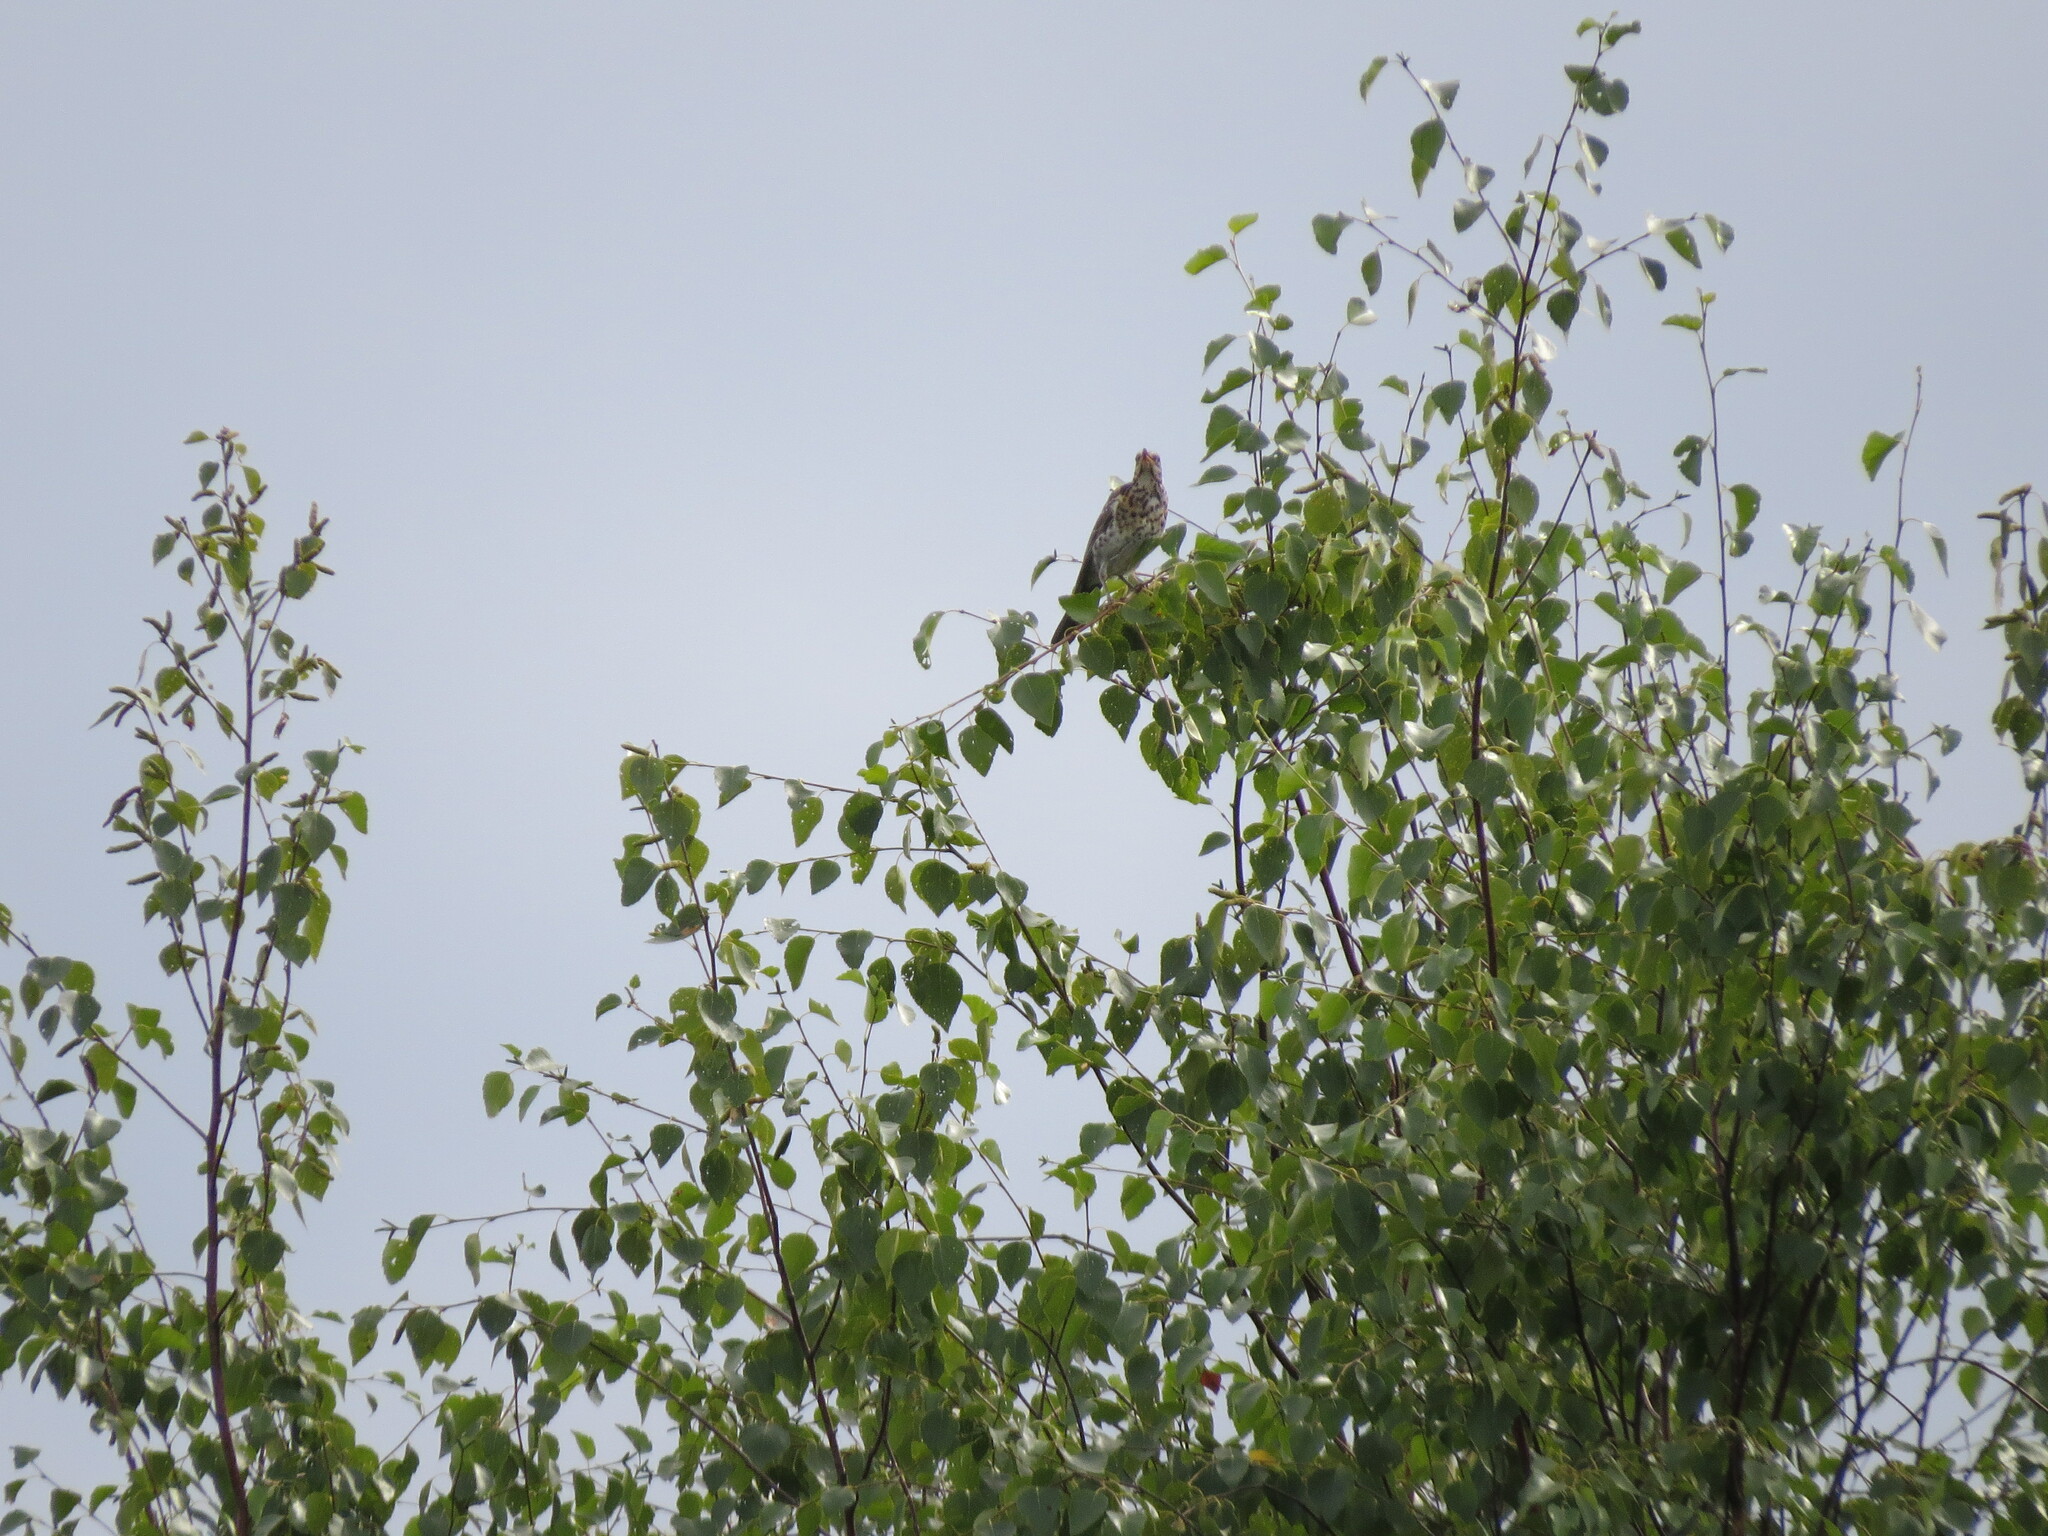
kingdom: Animalia
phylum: Chordata
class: Aves
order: Passeriformes
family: Turdidae
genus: Turdus
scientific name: Turdus pilaris
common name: Fieldfare
